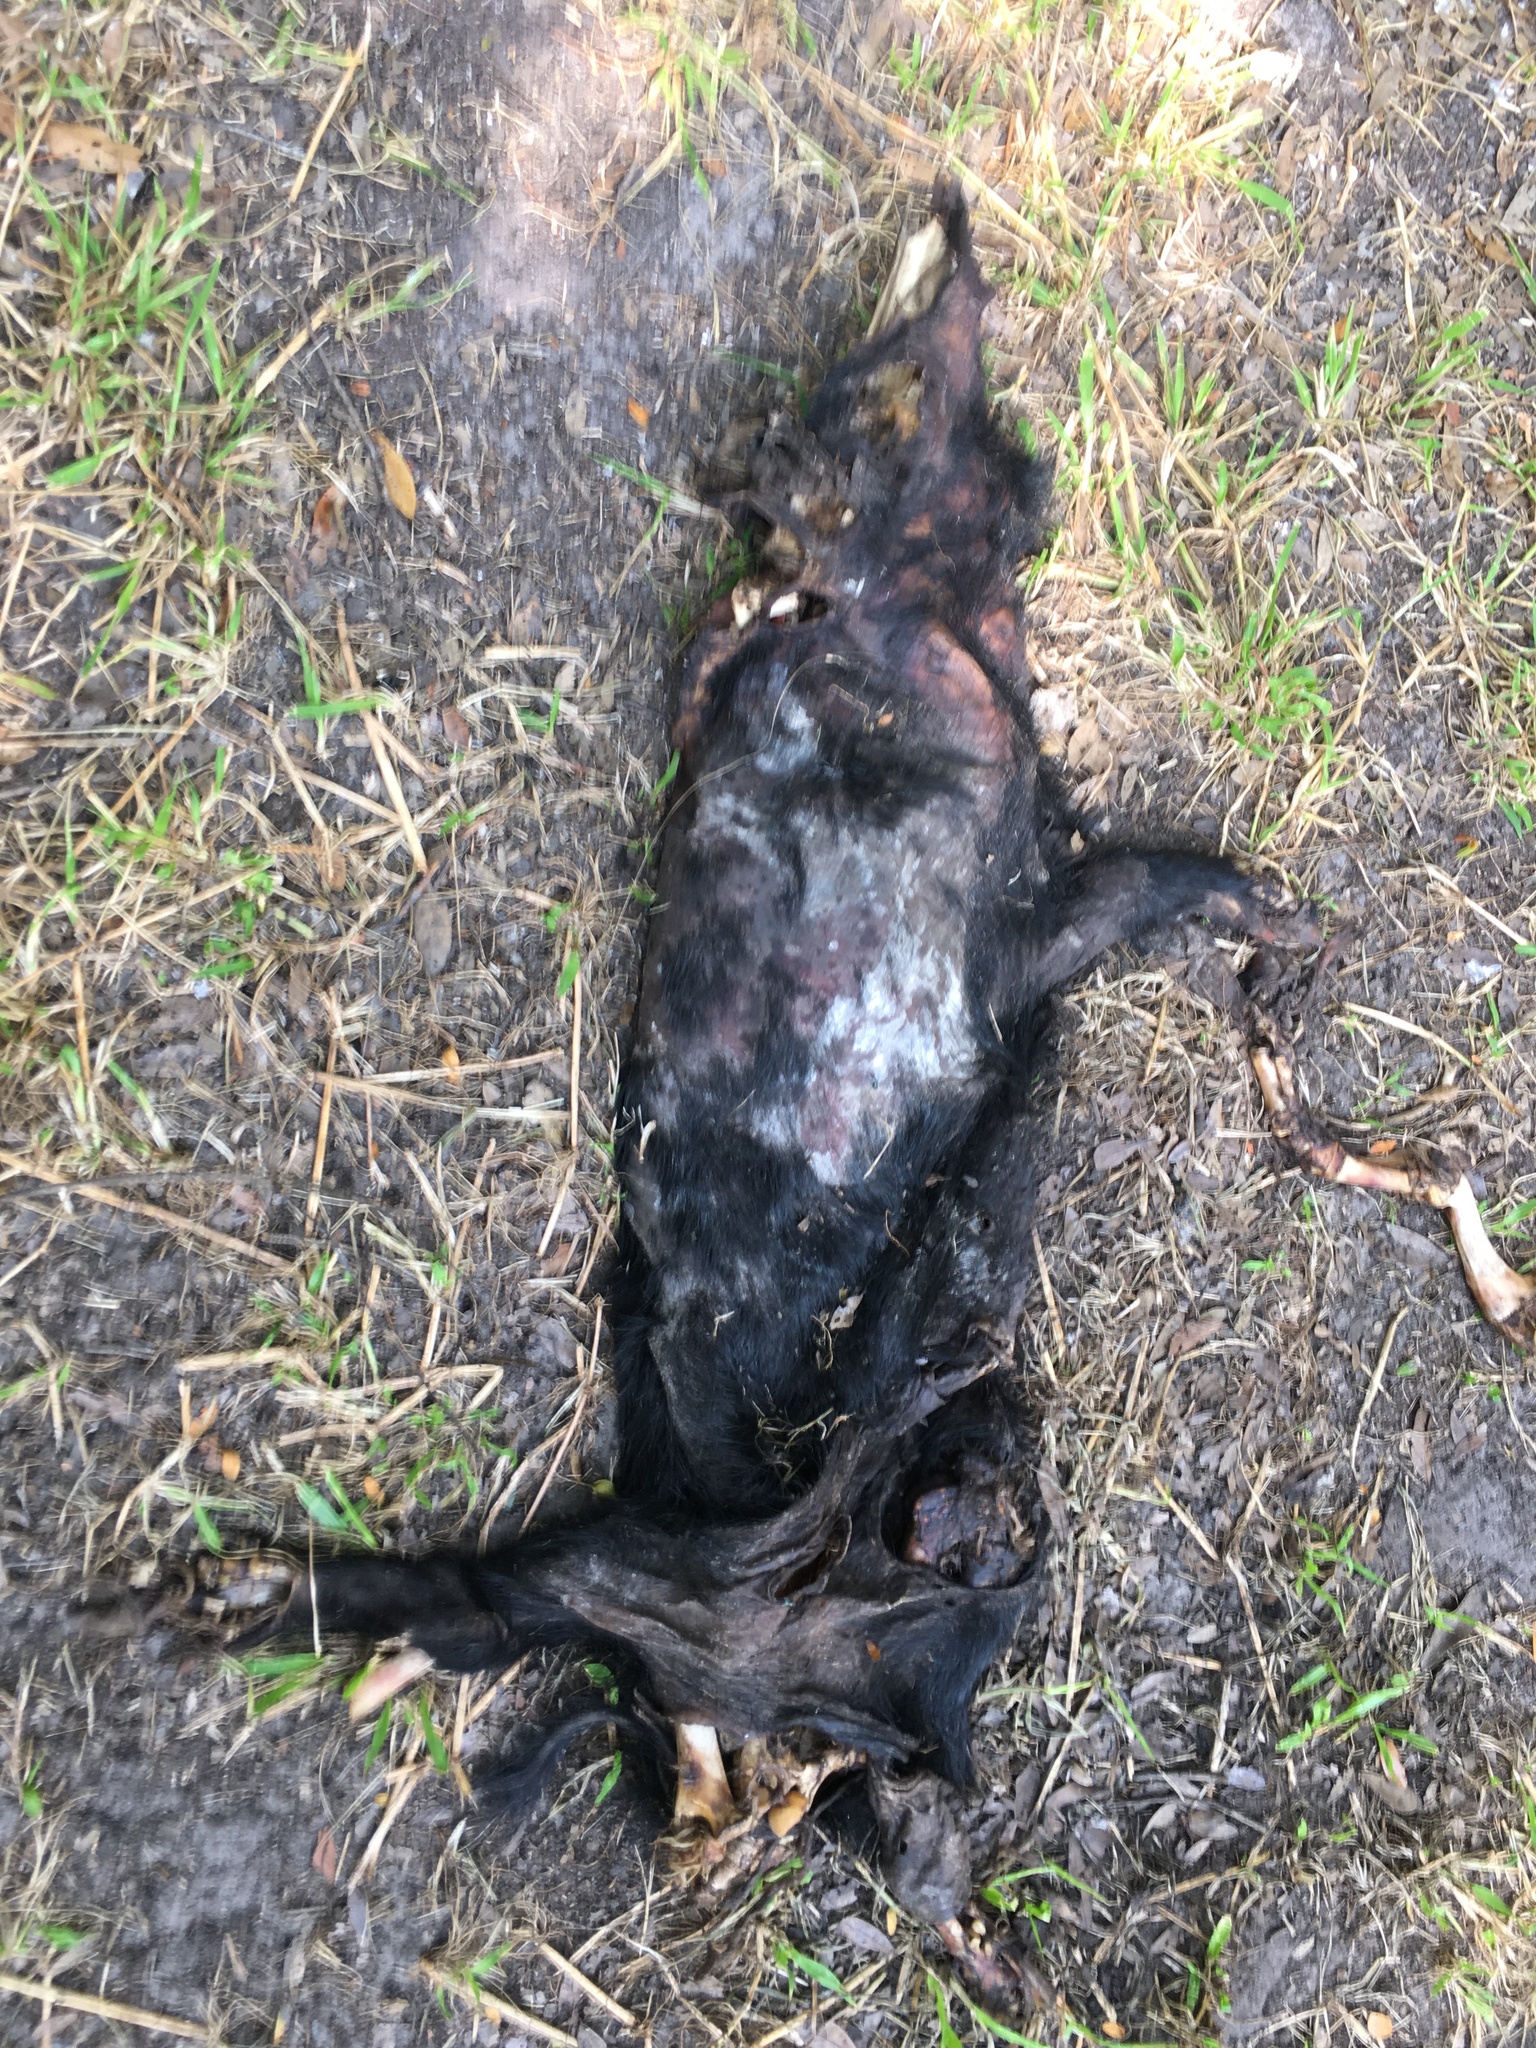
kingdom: Animalia
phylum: Chordata
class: Mammalia
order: Artiodactyla
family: Suidae
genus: Sus
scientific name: Sus scrofa
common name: Wild boar
